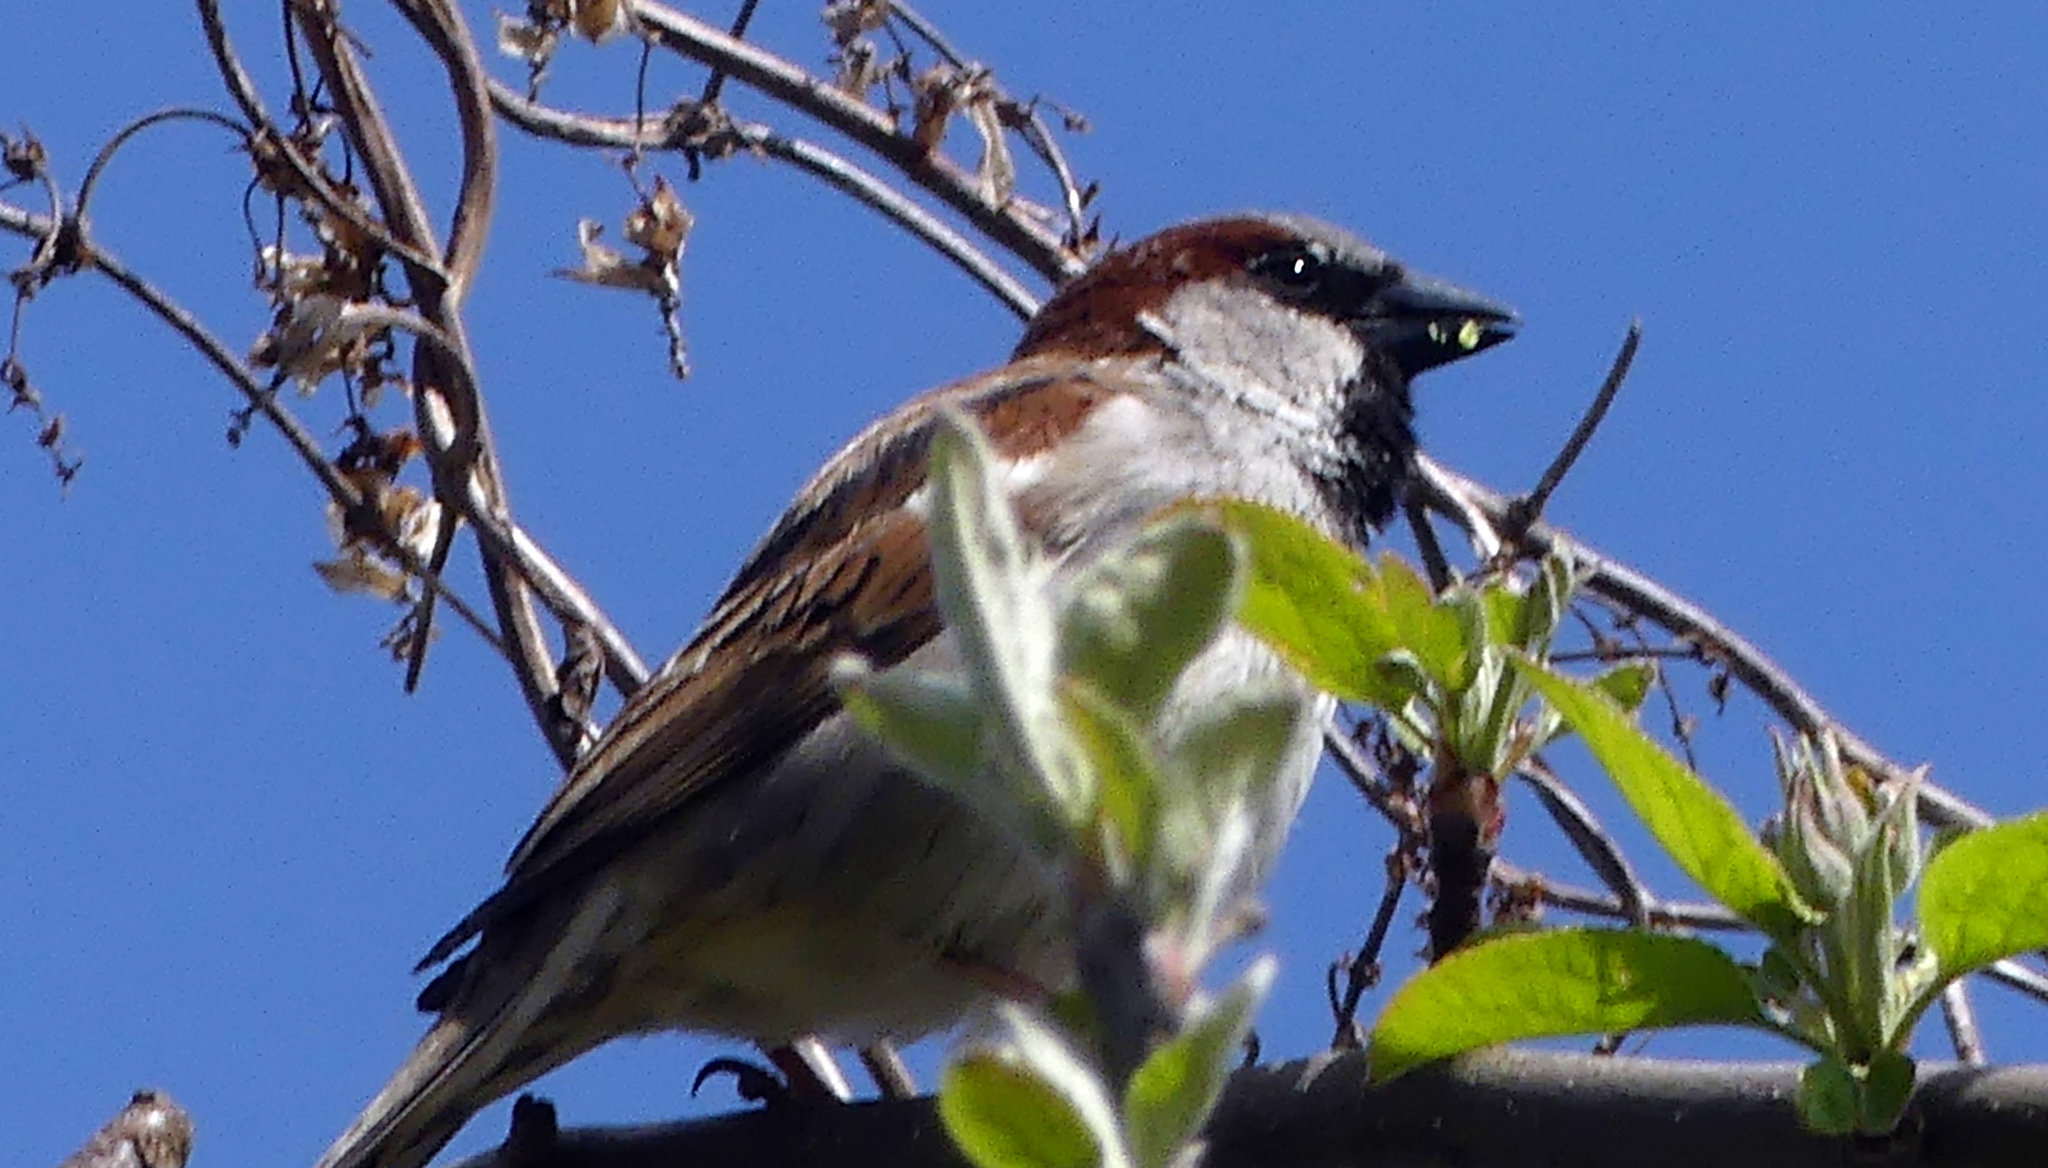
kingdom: Animalia
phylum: Chordata
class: Aves
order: Passeriformes
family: Passeridae
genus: Passer
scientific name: Passer domesticus
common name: House sparrow
